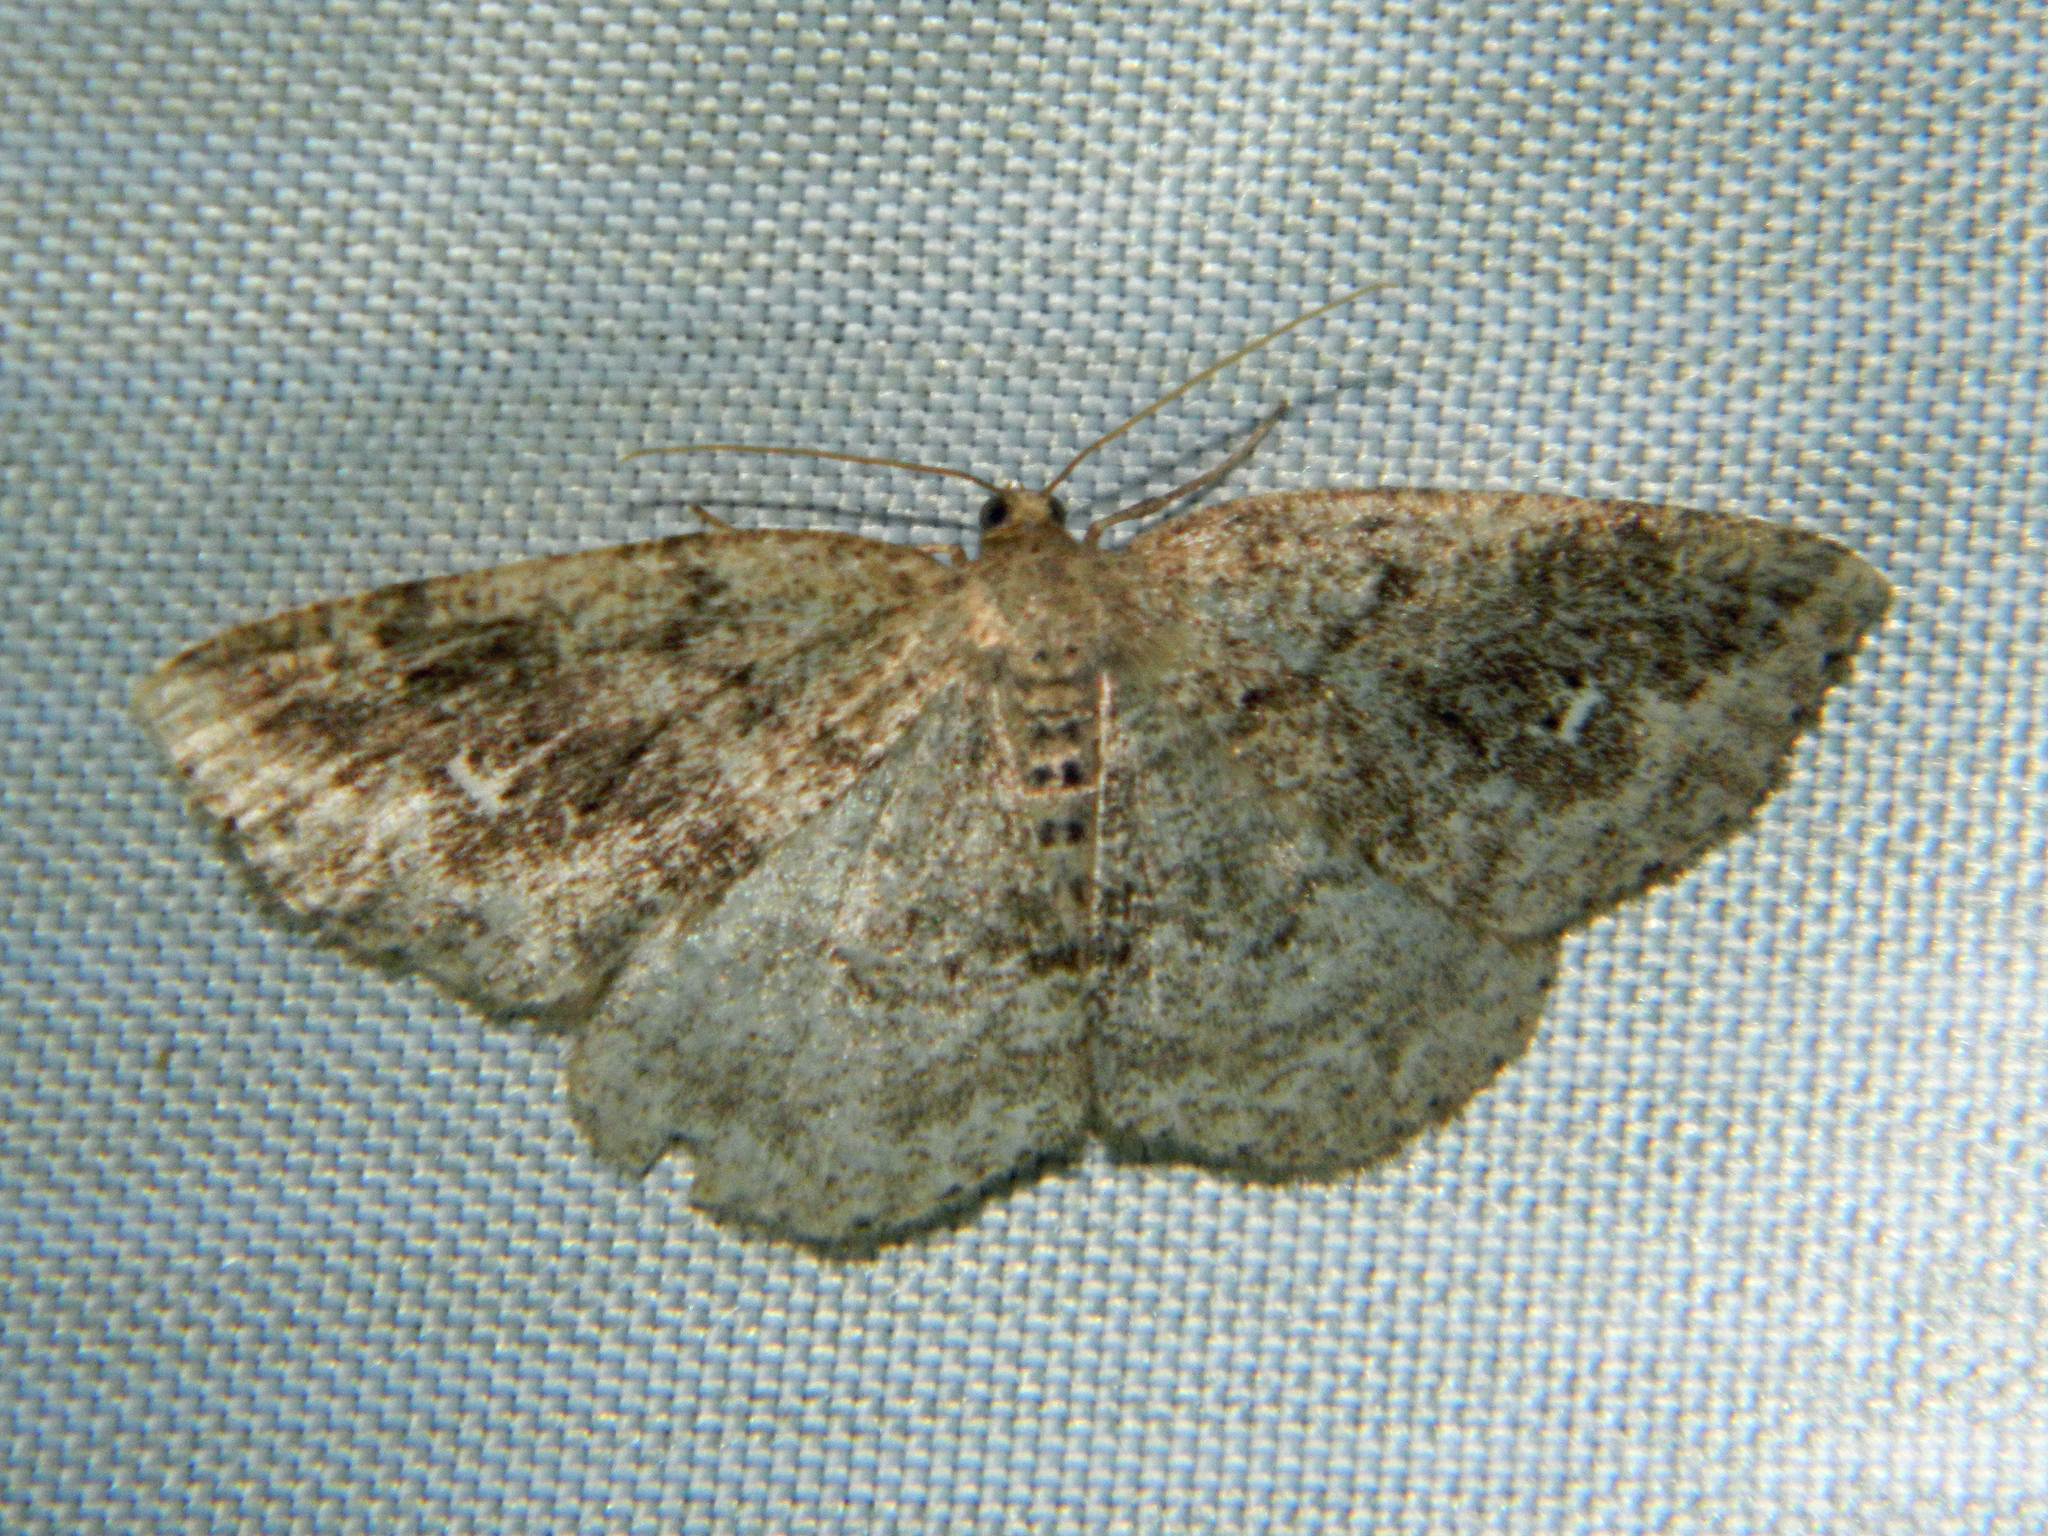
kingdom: Animalia
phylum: Arthropoda
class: Insecta
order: Lepidoptera
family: Geometridae
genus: Homochlodes
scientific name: Homochlodes fritillaria
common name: Pale homochlodes
